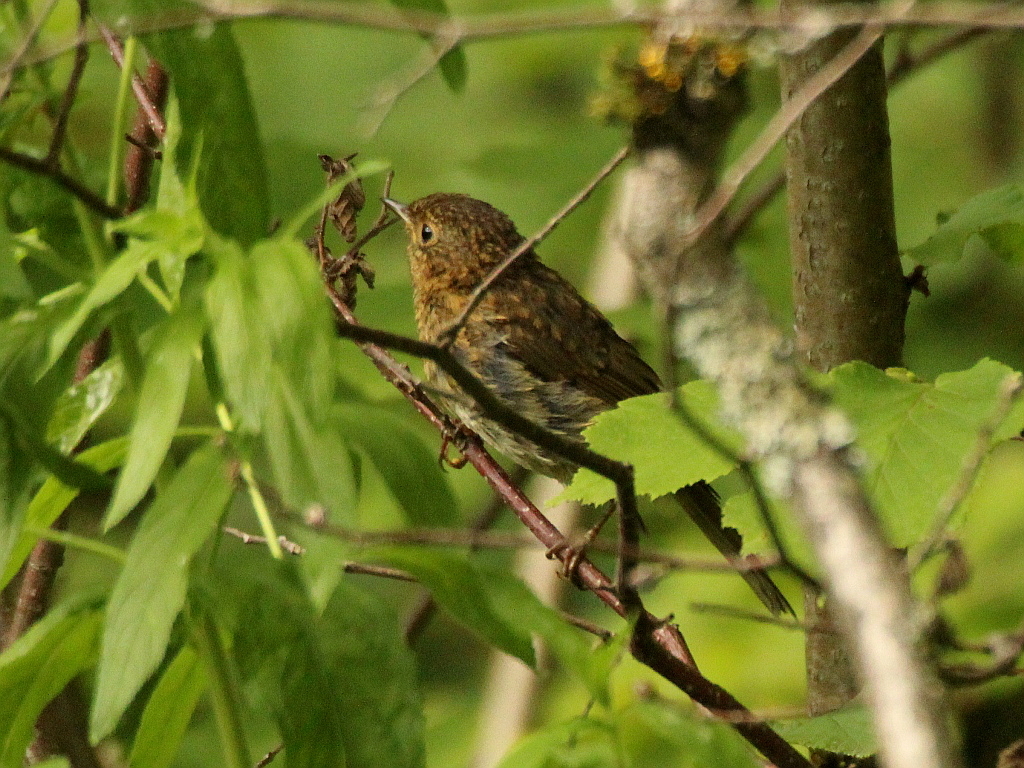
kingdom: Animalia
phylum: Chordata
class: Aves
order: Passeriformes
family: Muscicapidae
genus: Erithacus
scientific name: Erithacus rubecula
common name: European robin
